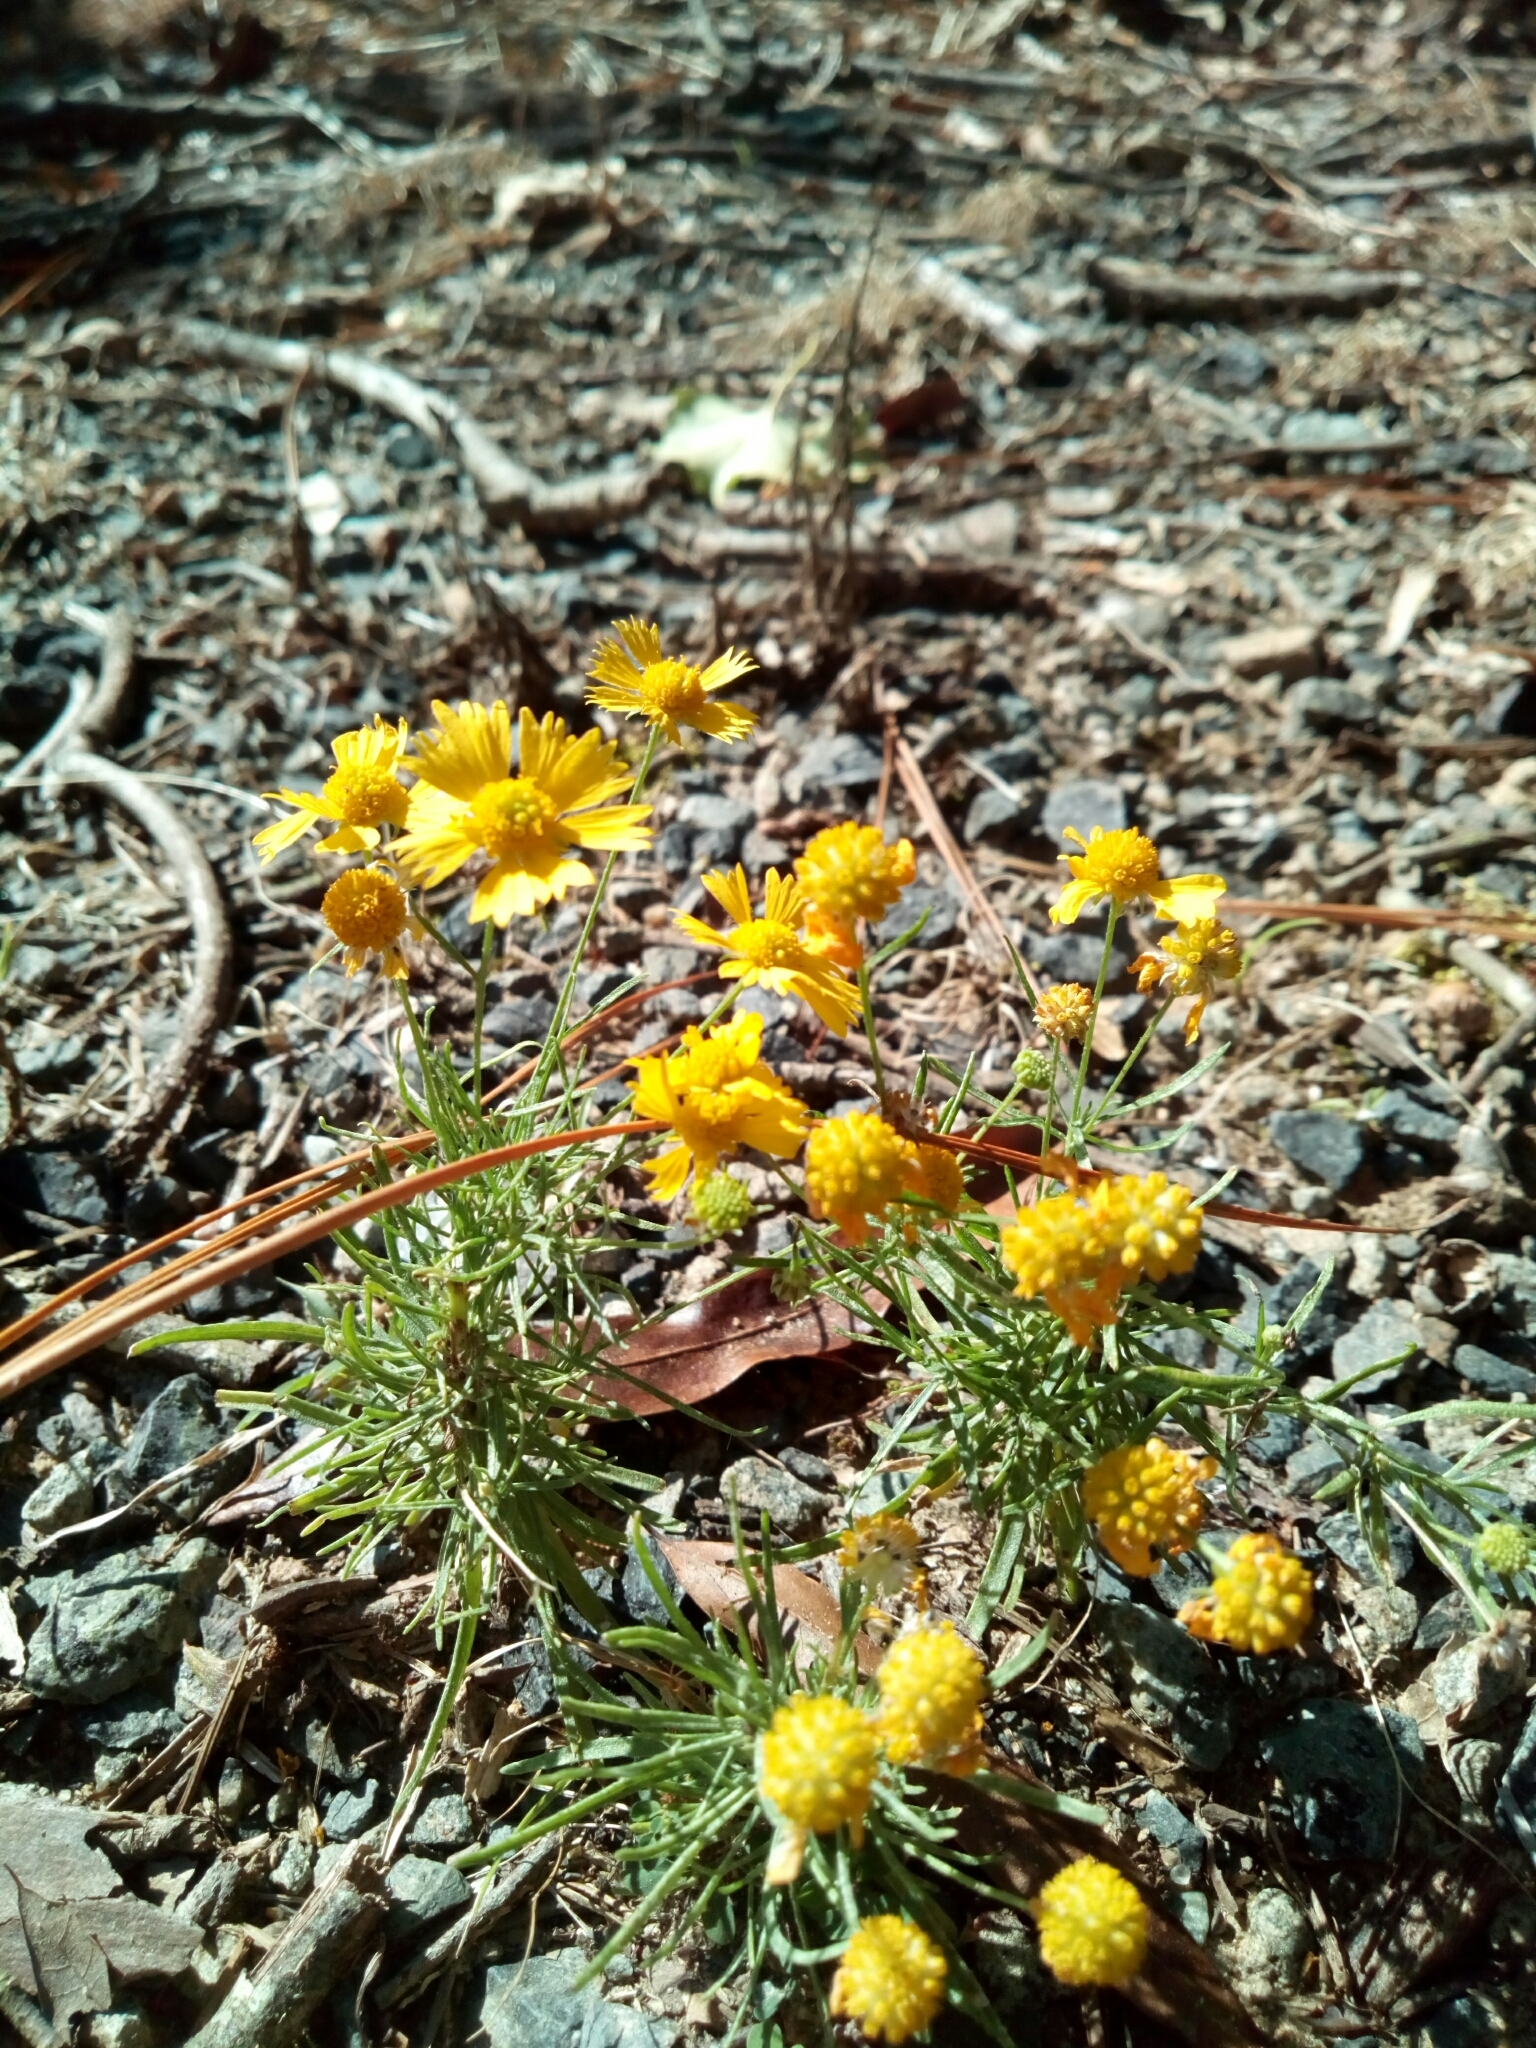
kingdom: Plantae
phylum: Tracheophyta
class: Magnoliopsida
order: Asterales
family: Asteraceae
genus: Helenium
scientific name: Helenium amarum
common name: Bitter sneezeweed
